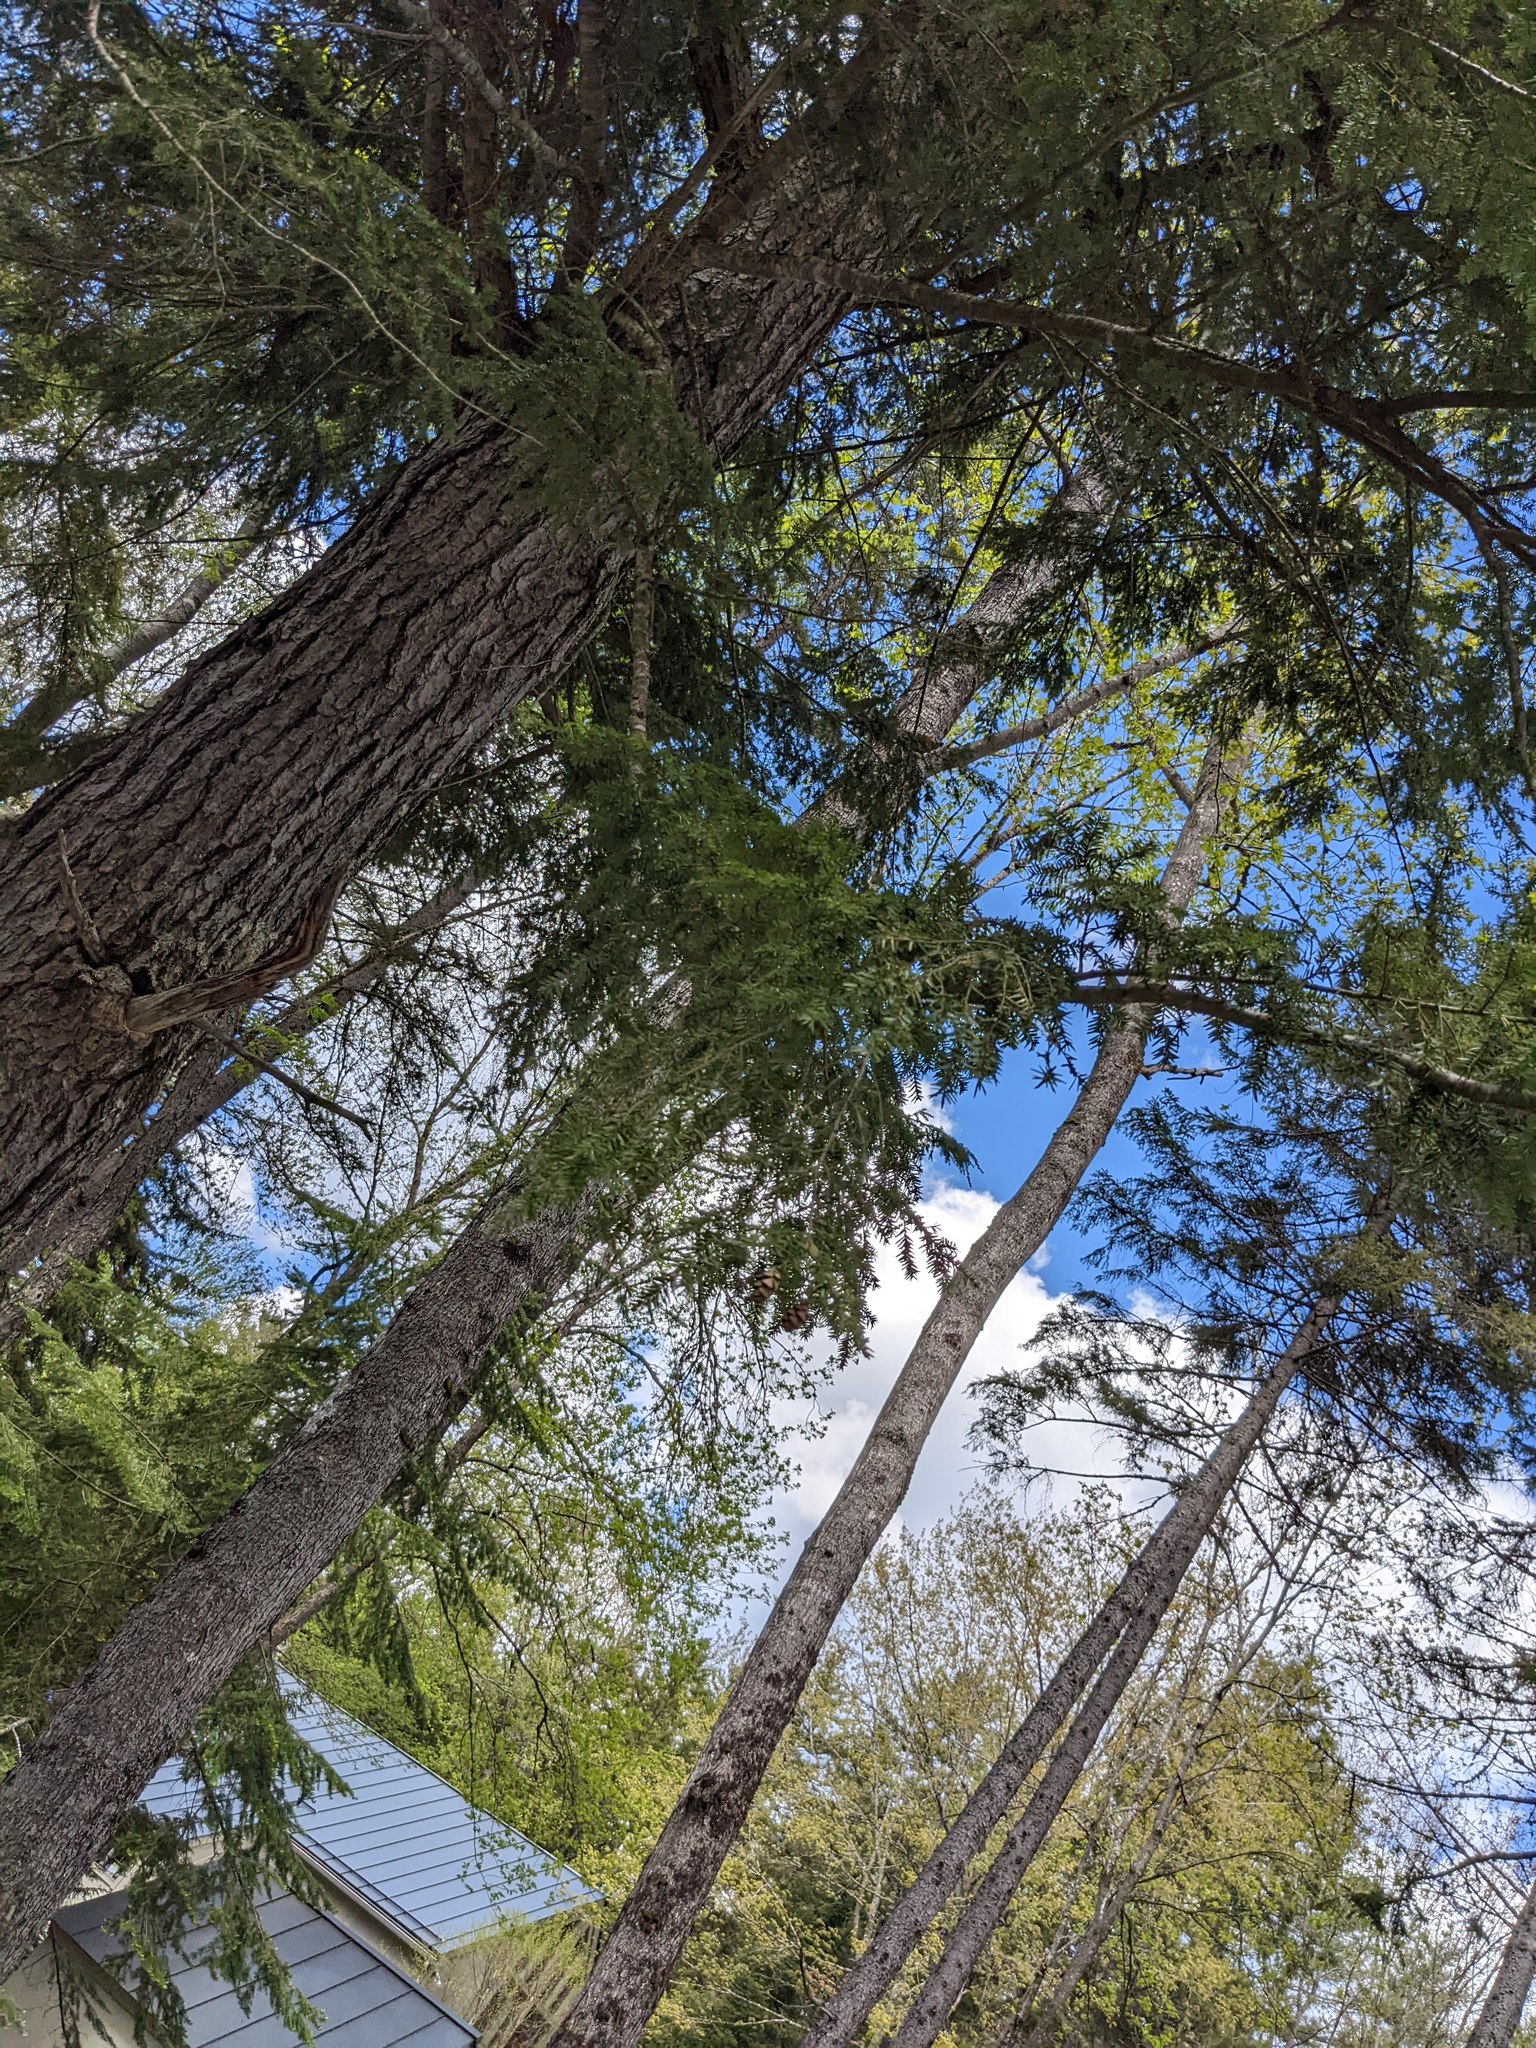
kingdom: Plantae
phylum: Tracheophyta
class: Pinopsida
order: Pinales
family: Pinaceae
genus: Tsuga
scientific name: Tsuga canadensis
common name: Eastern hemlock
